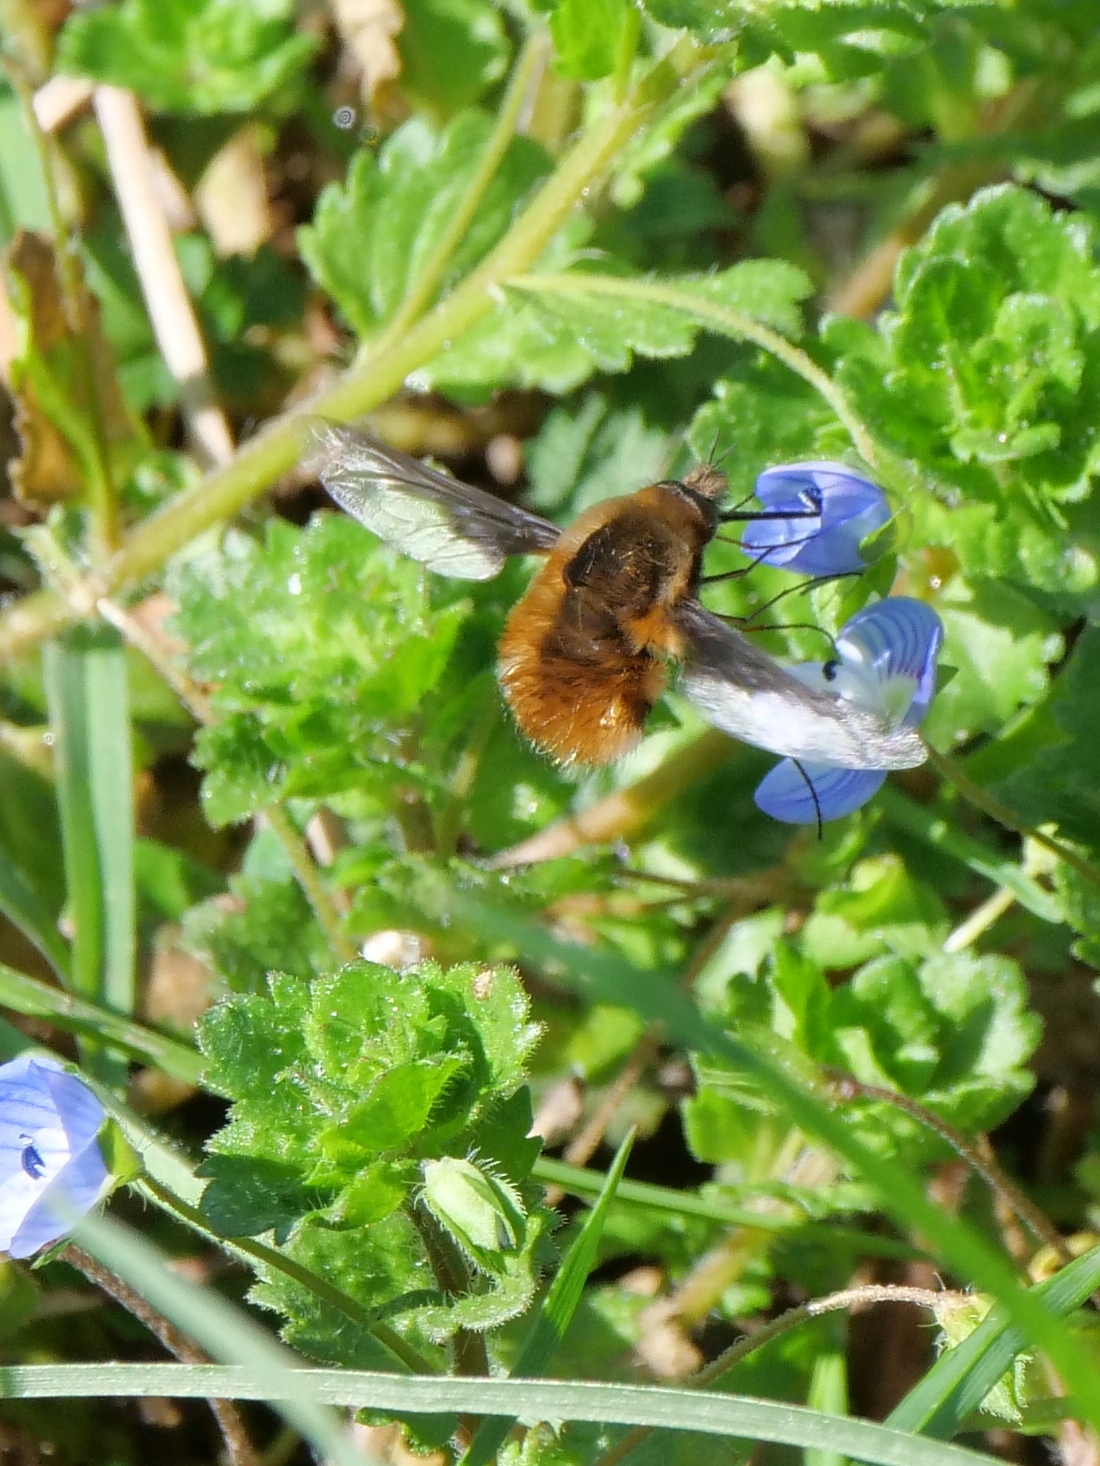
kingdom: Animalia
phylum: Arthropoda
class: Insecta
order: Diptera
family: Bombyliidae
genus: Bombylius
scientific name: Bombylius major
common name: Bee fly
